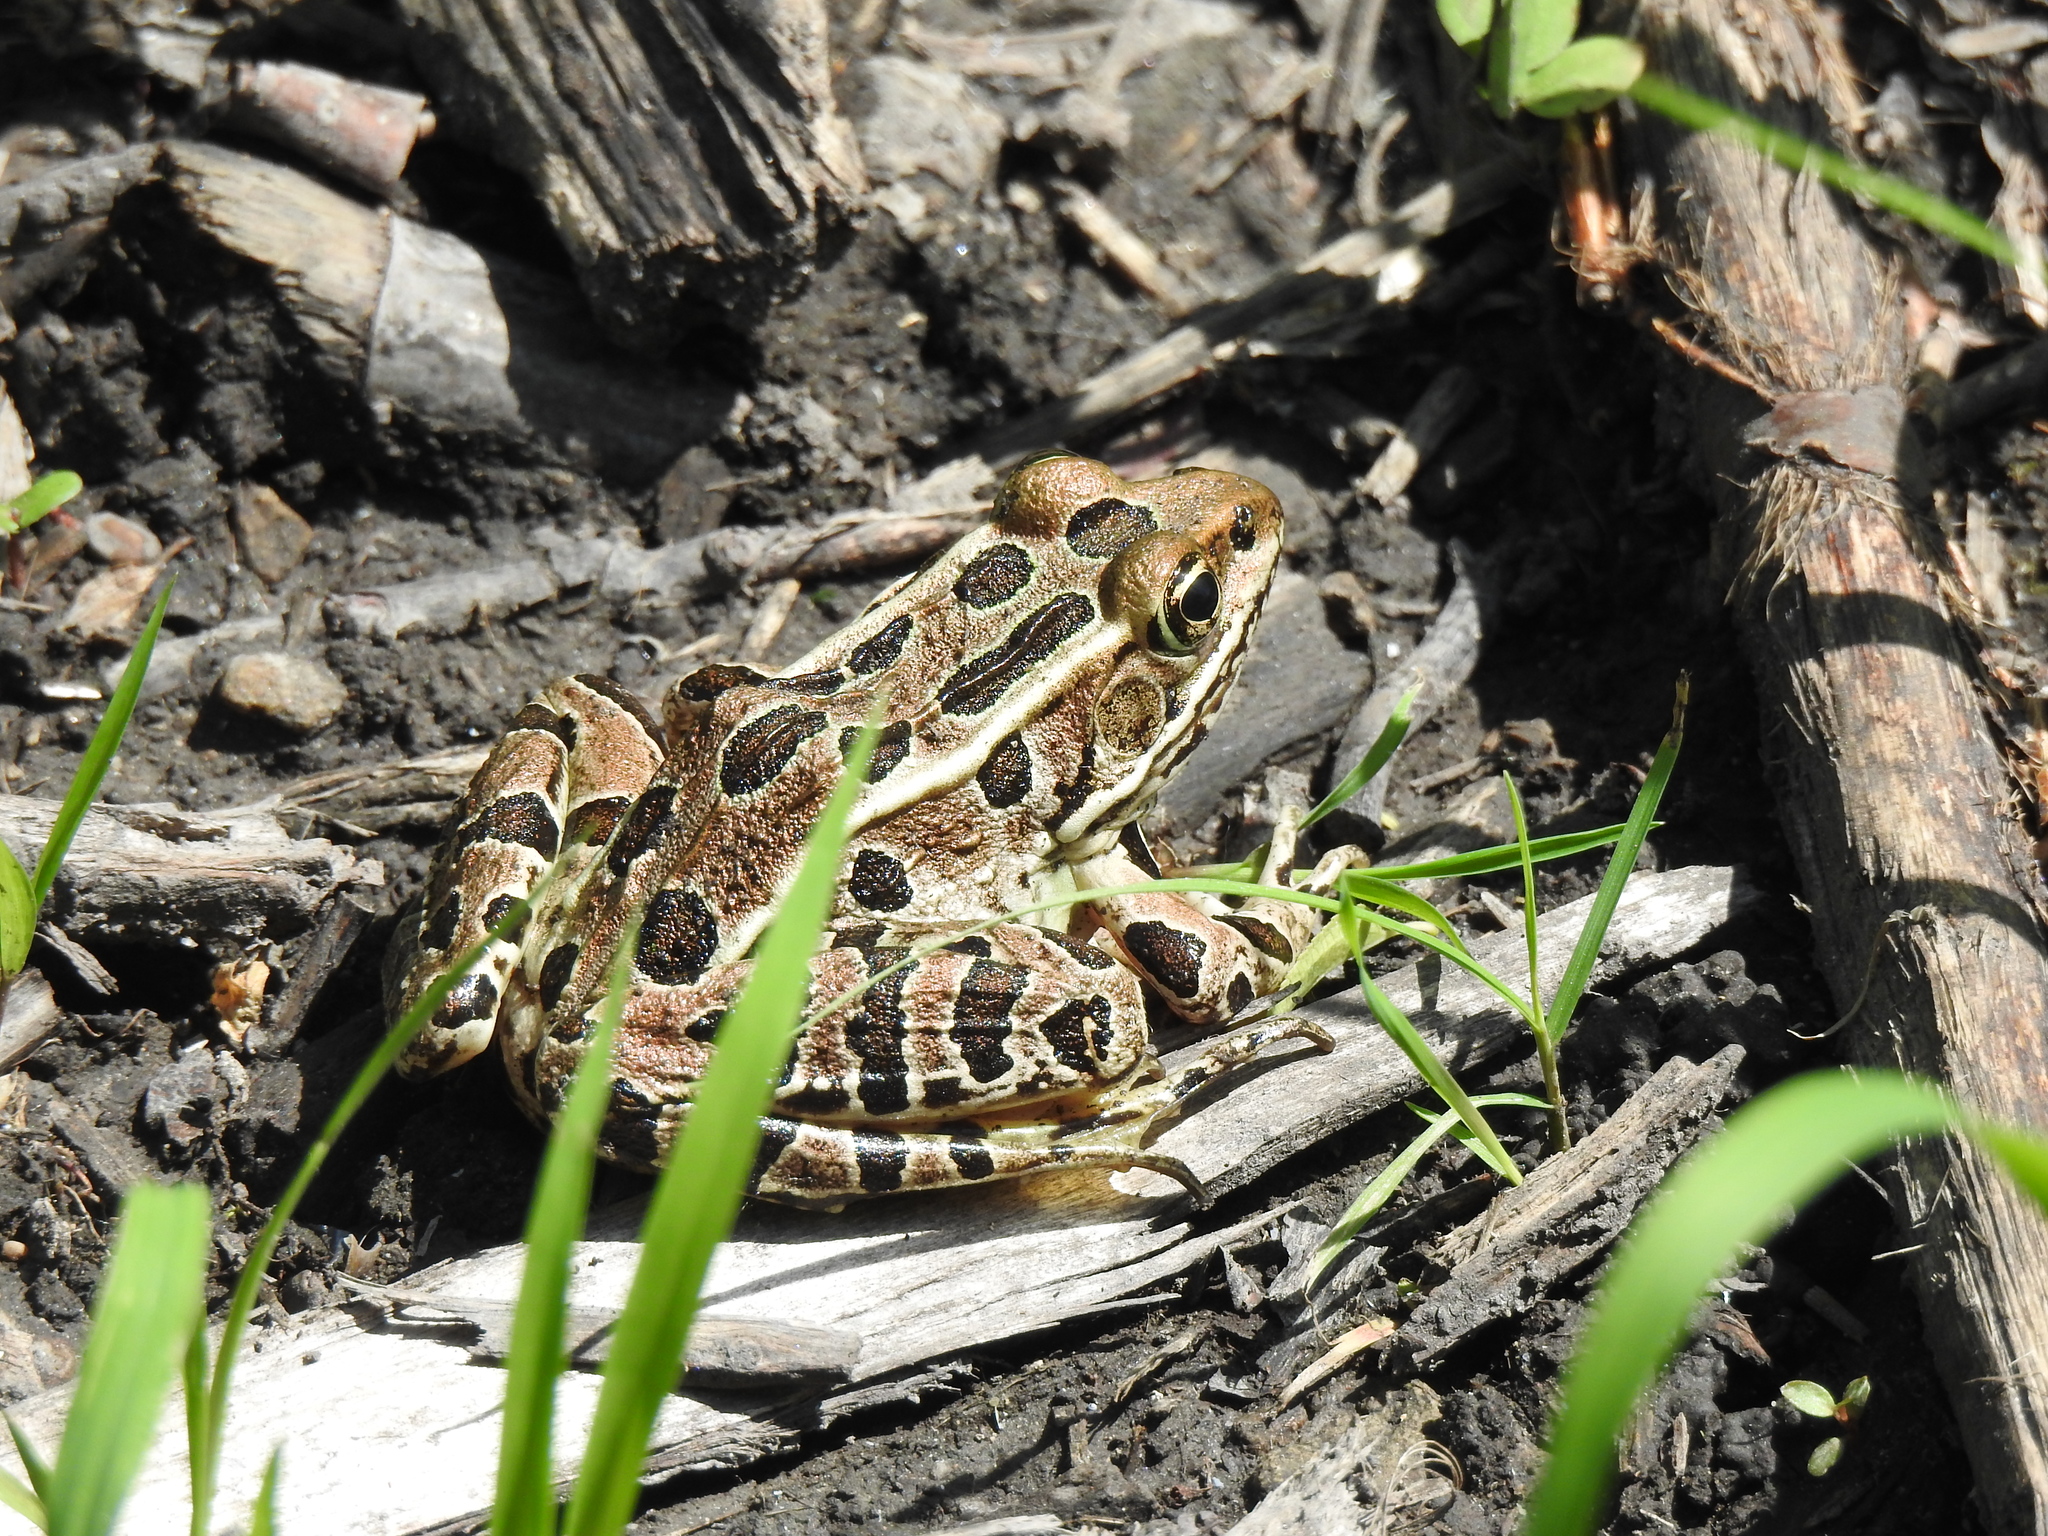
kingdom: Animalia
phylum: Chordata
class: Amphibia
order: Anura
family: Ranidae
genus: Lithobates
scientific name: Lithobates pipiens
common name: Northern leopard frog
